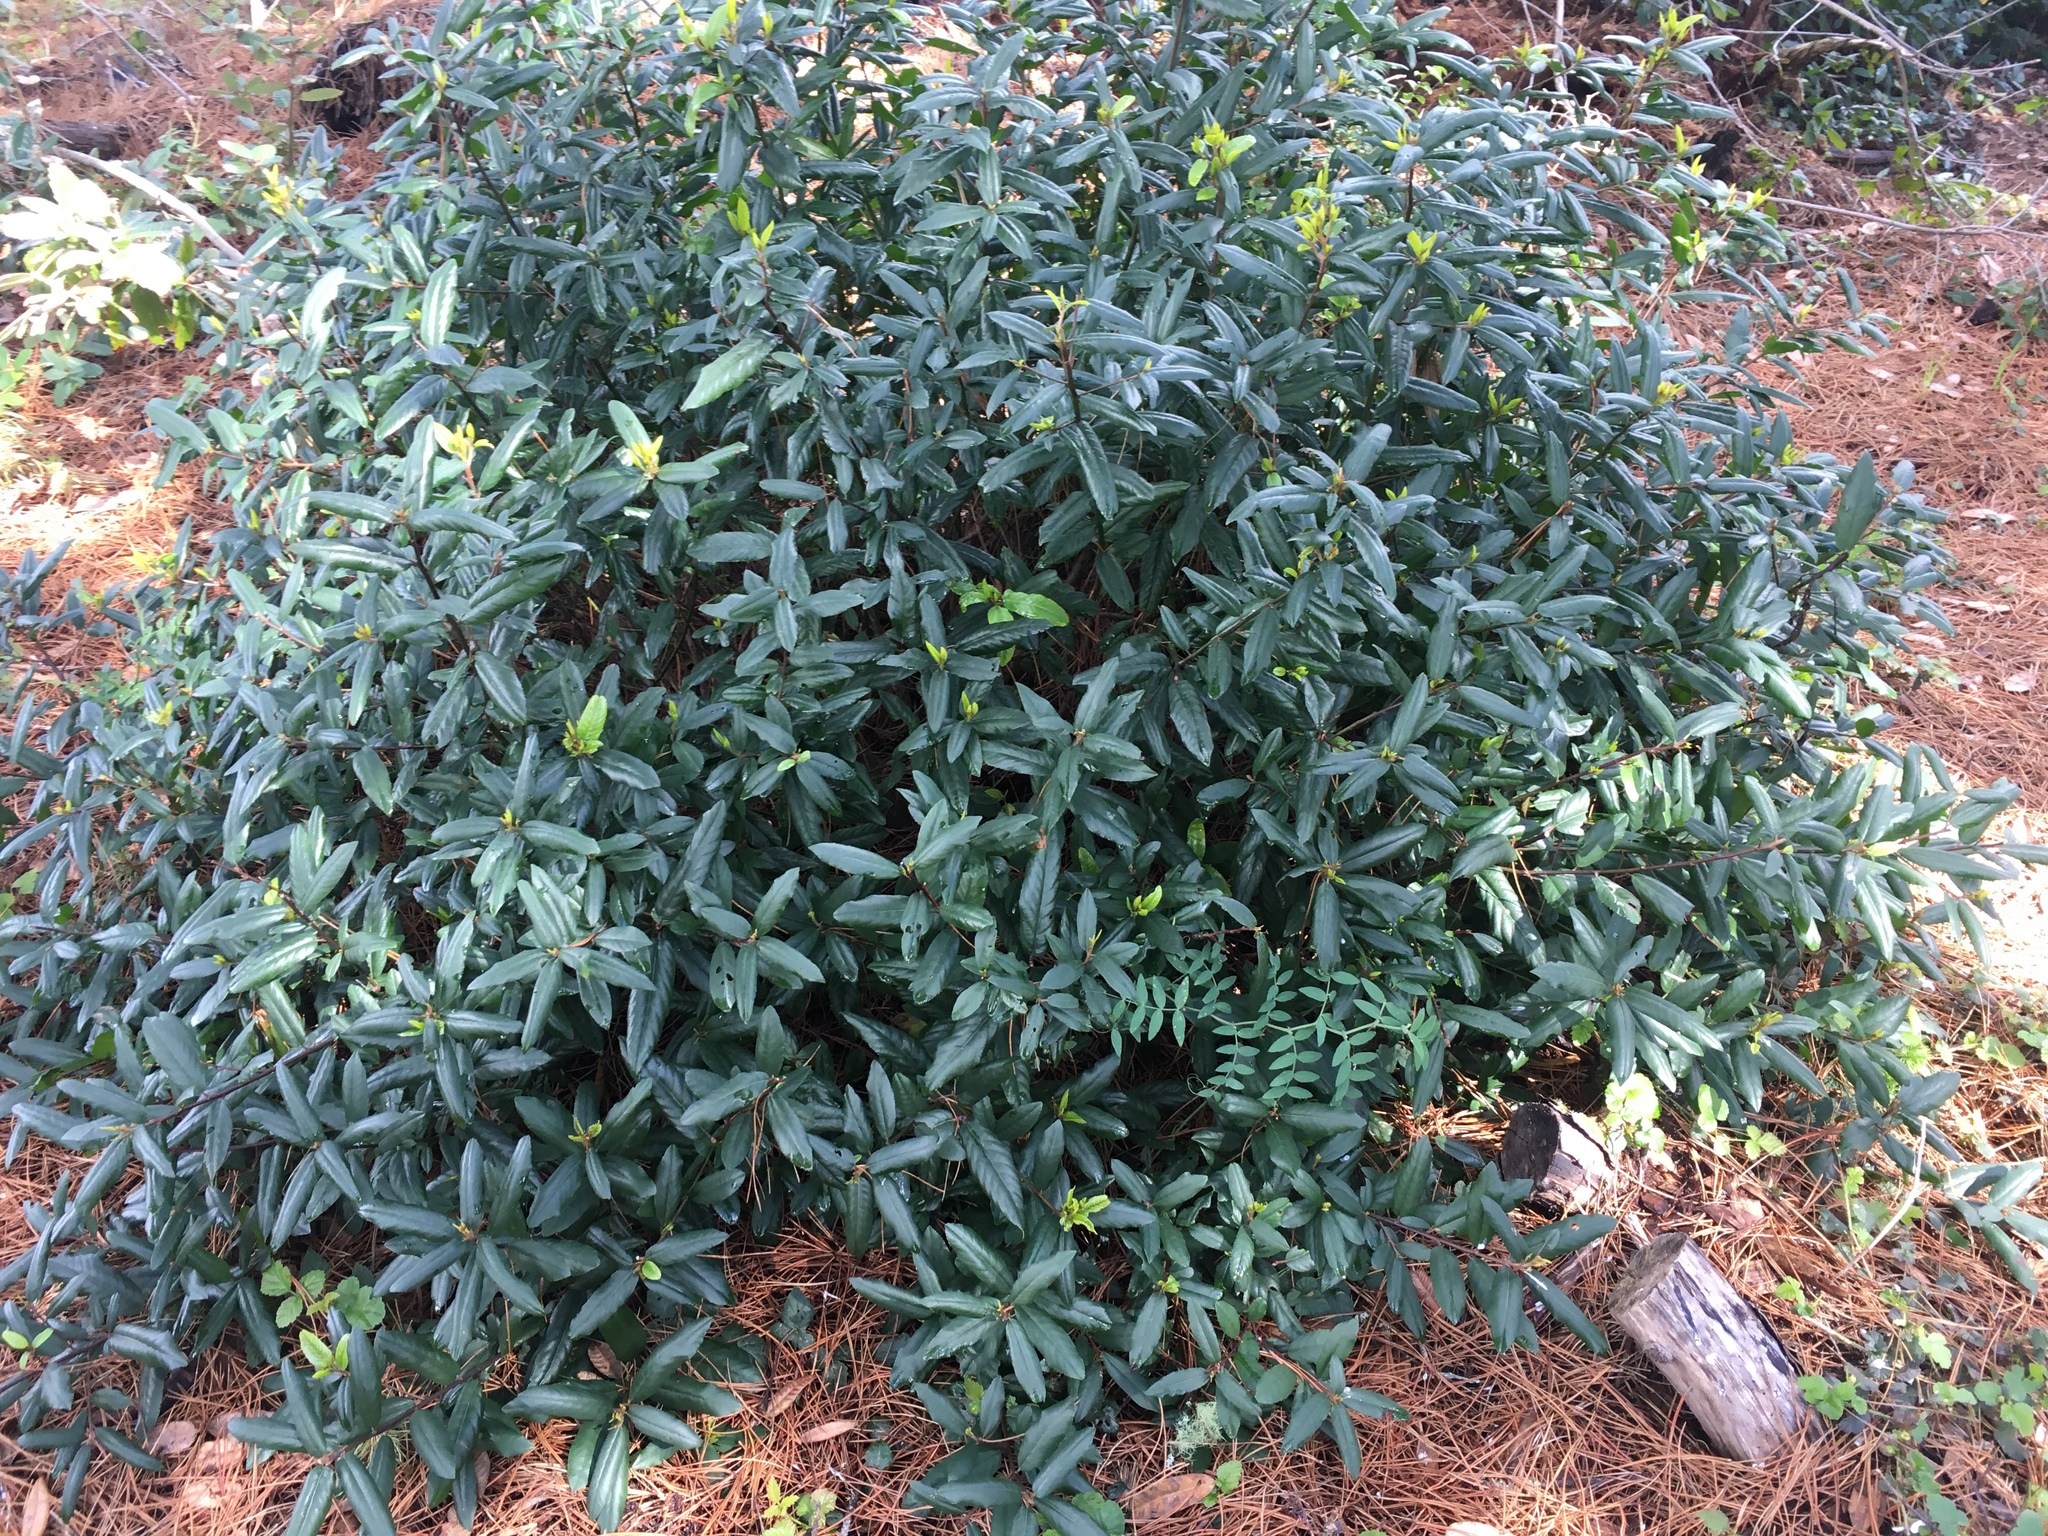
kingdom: Plantae
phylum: Tracheophyta
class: Magnoliopsida
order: Rosales
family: Rhamnaceae
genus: Frangula
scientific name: Frangula californica
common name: California buckthorn
